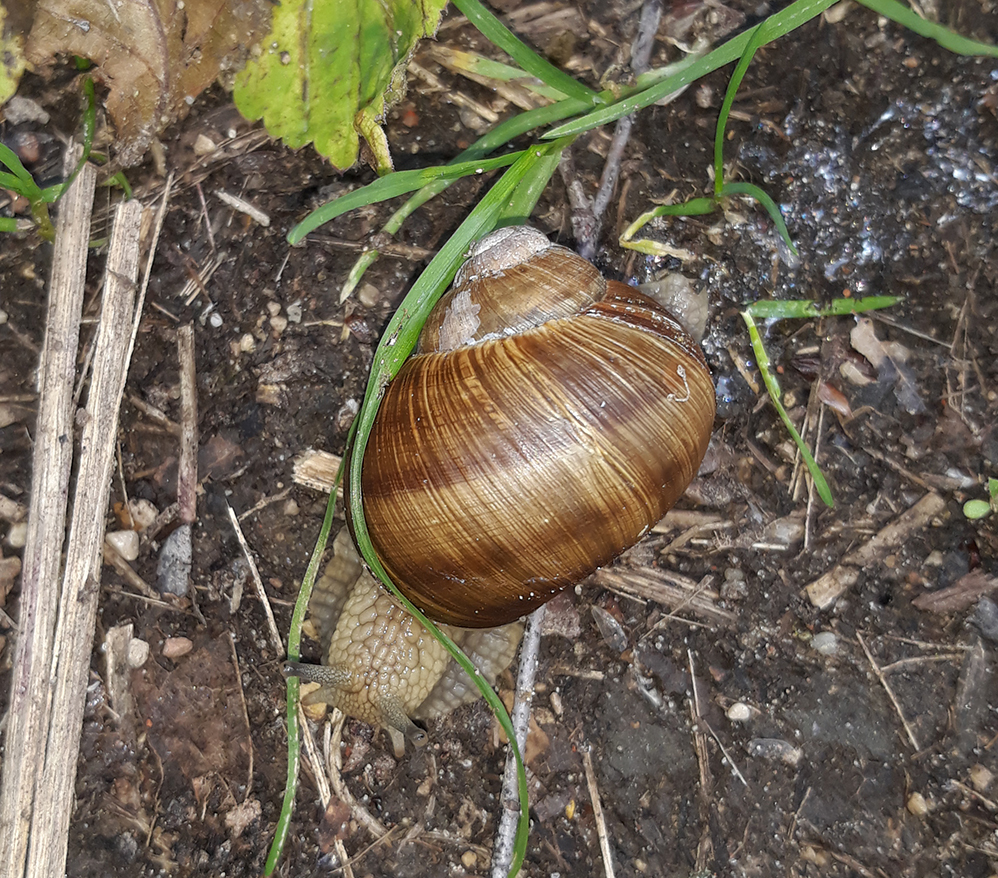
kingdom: Animalia
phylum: Mollusca
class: Gastropoda
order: Stylommatophora
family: Helicidae
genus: Helix
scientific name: Helix pomatia
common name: Roman snail
